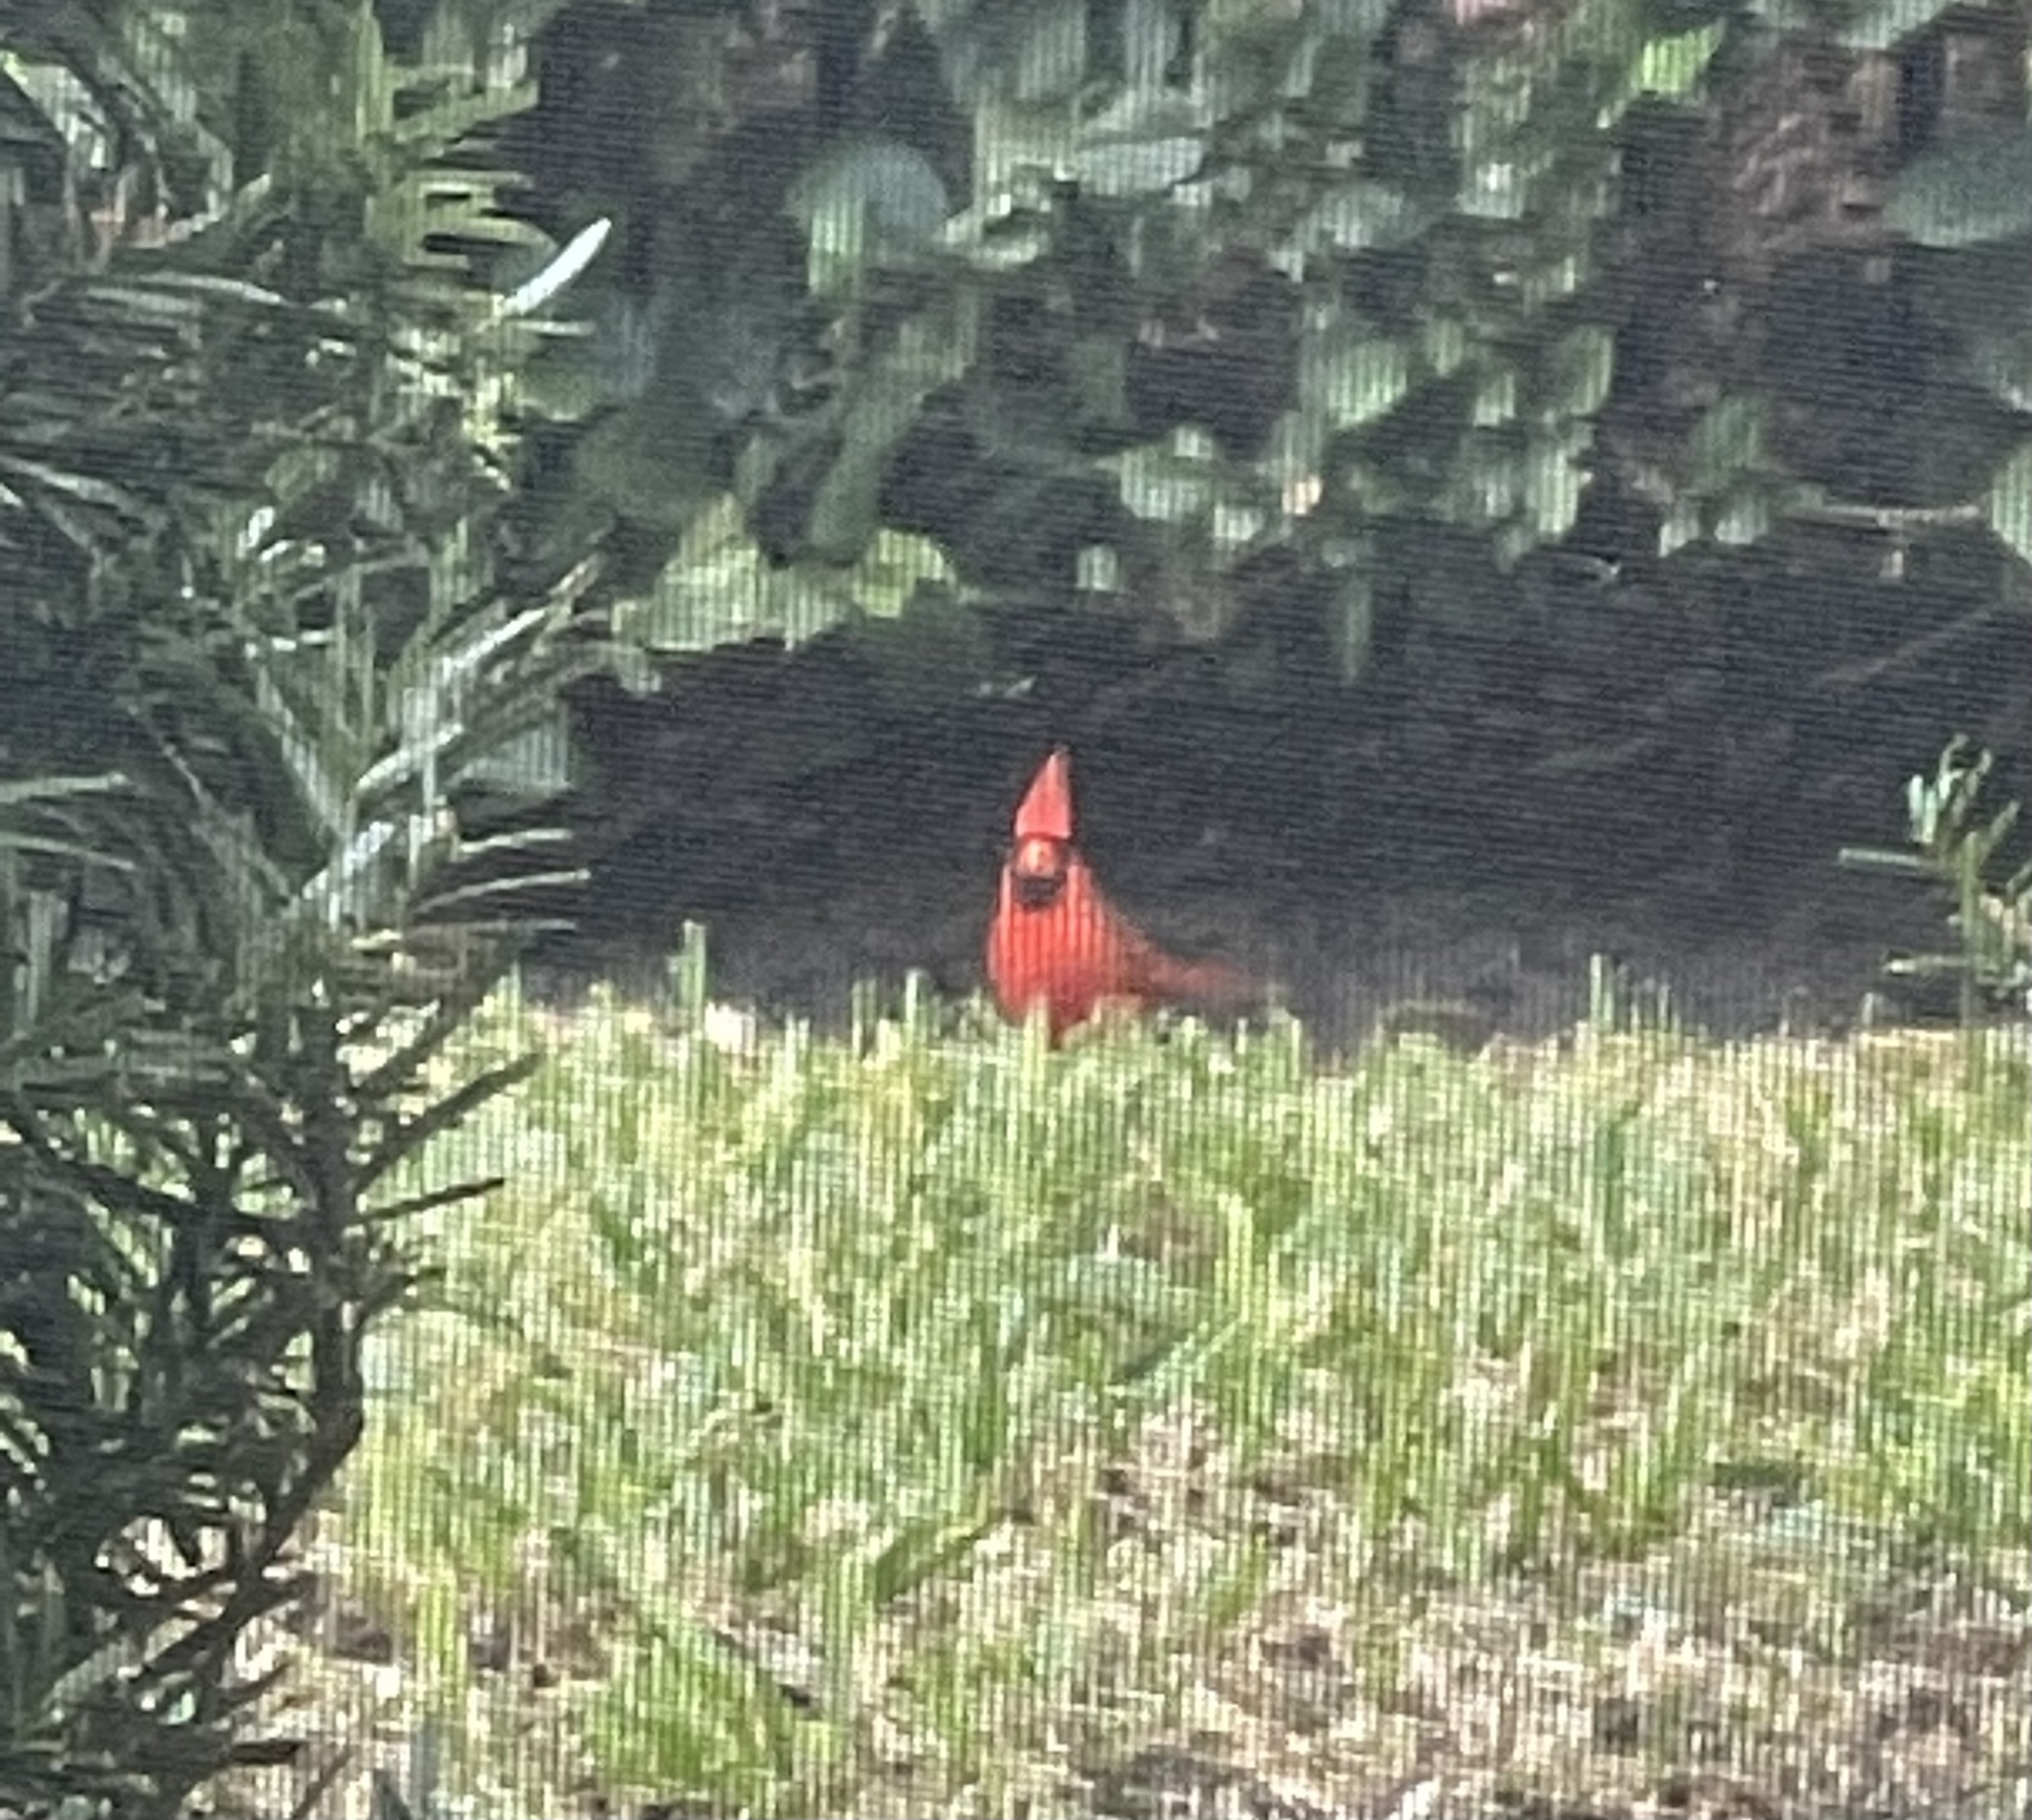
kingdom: Animalia
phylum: Chordata
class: Aves
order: Passeriformes
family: Cardinalidae
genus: Cardinalis
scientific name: Cardinalis cardinalis
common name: Northern cardinal
